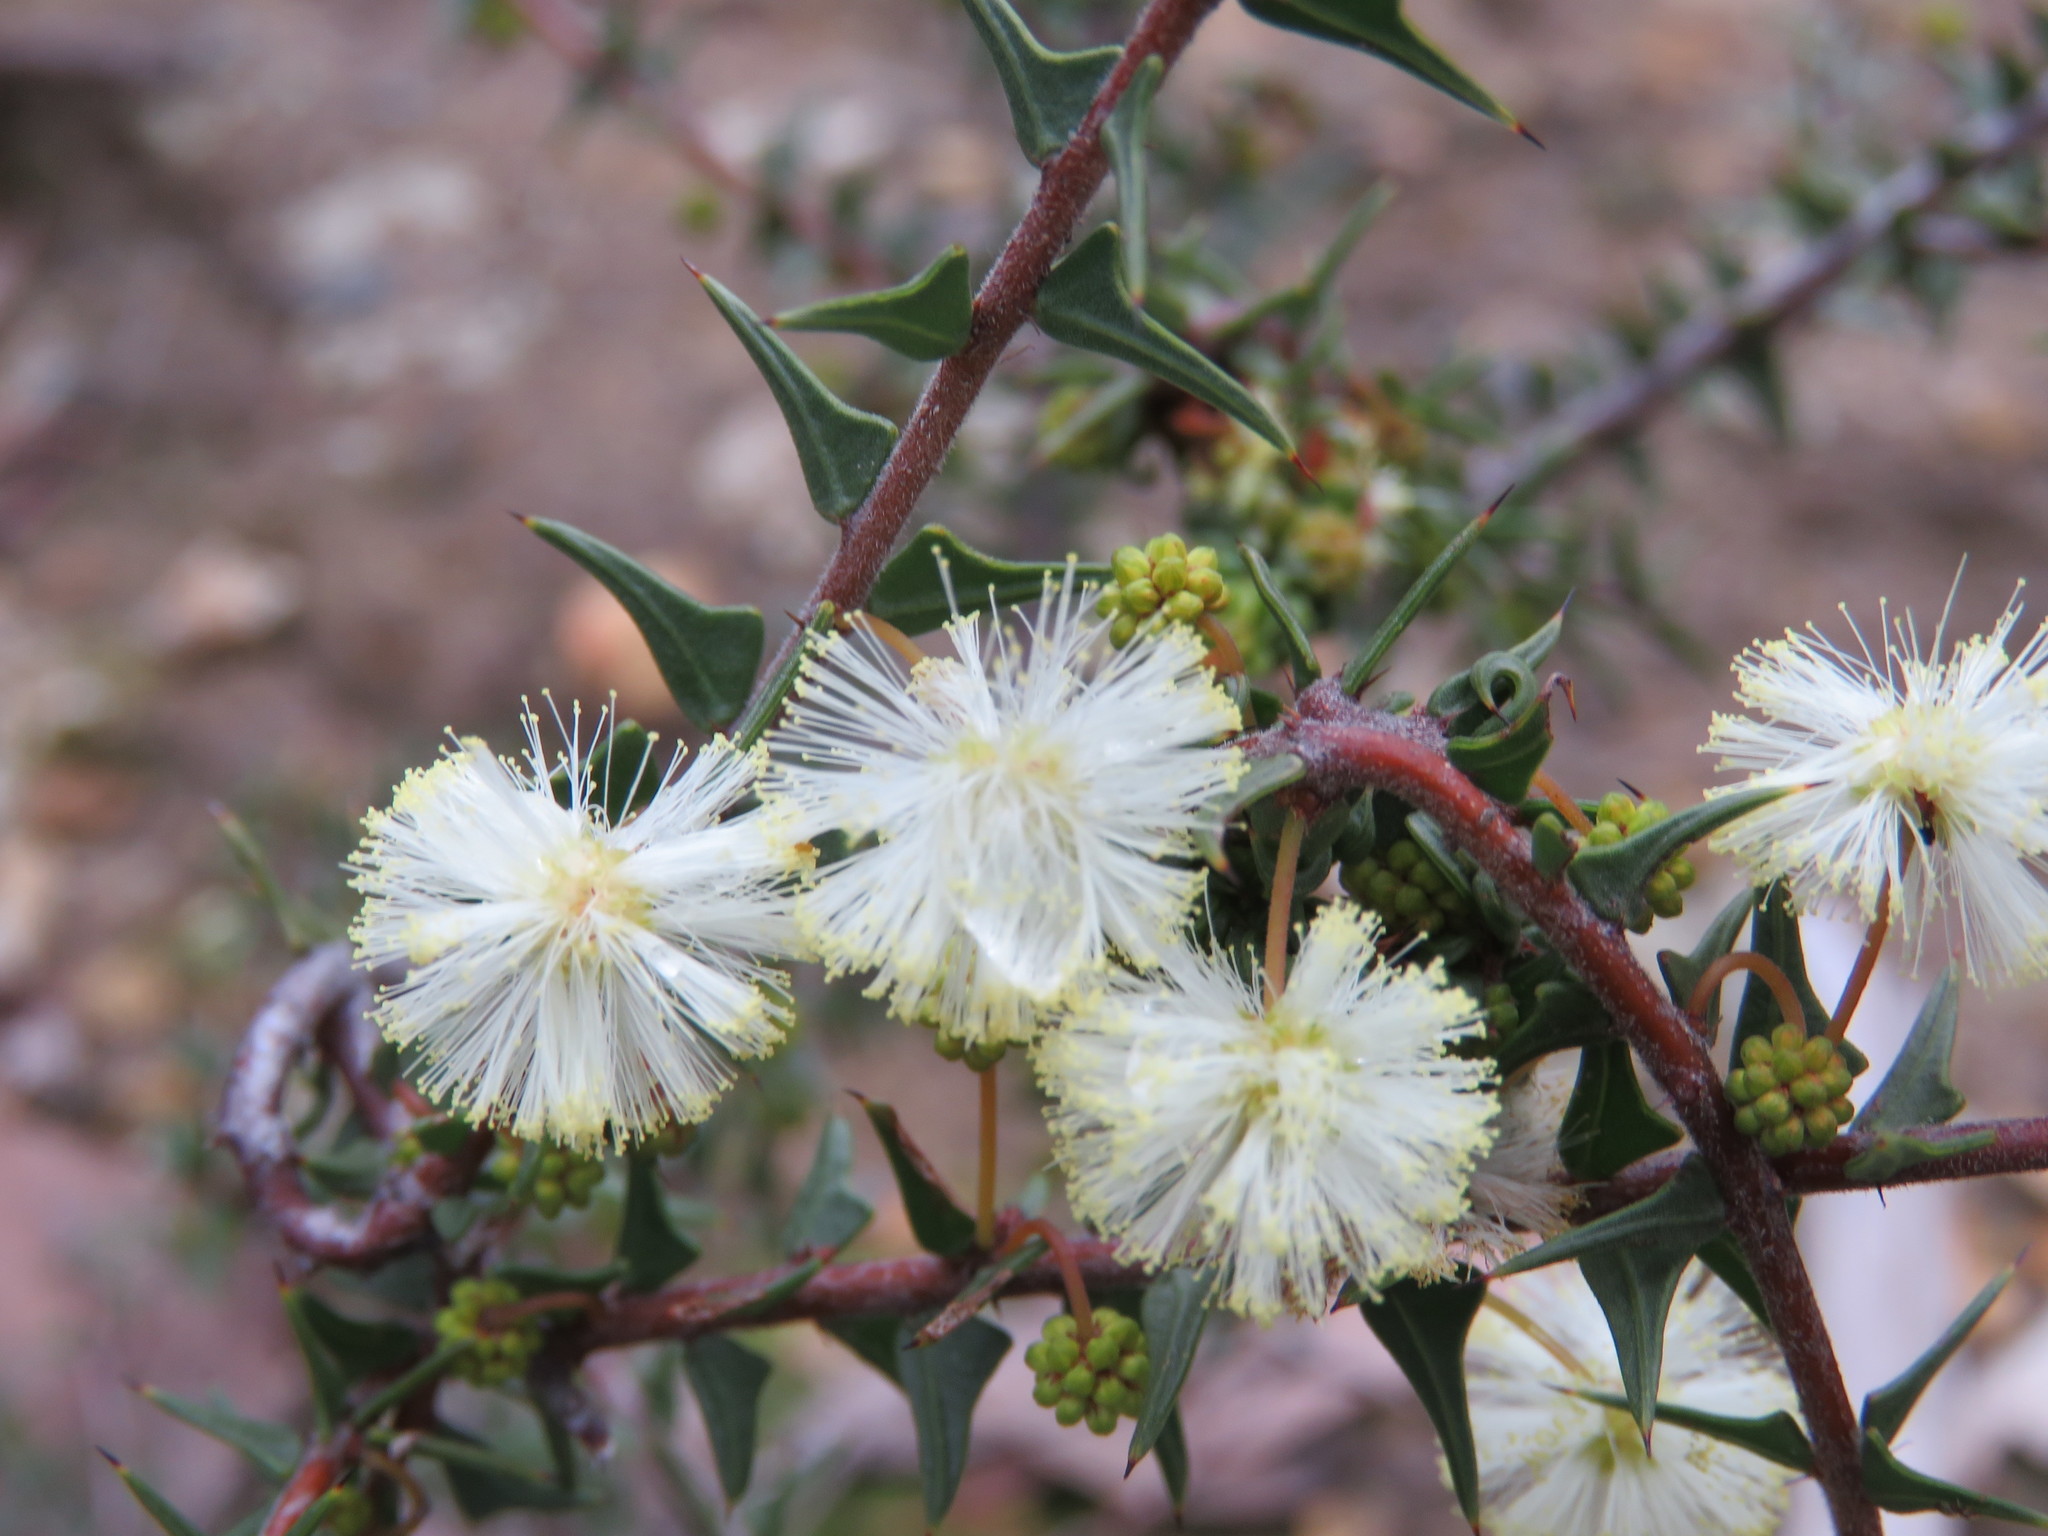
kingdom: Plantae
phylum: Tracheophyta
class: Magnoliopsida
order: Fabales
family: Fabaceae
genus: Acacia
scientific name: Acacia gunnii
